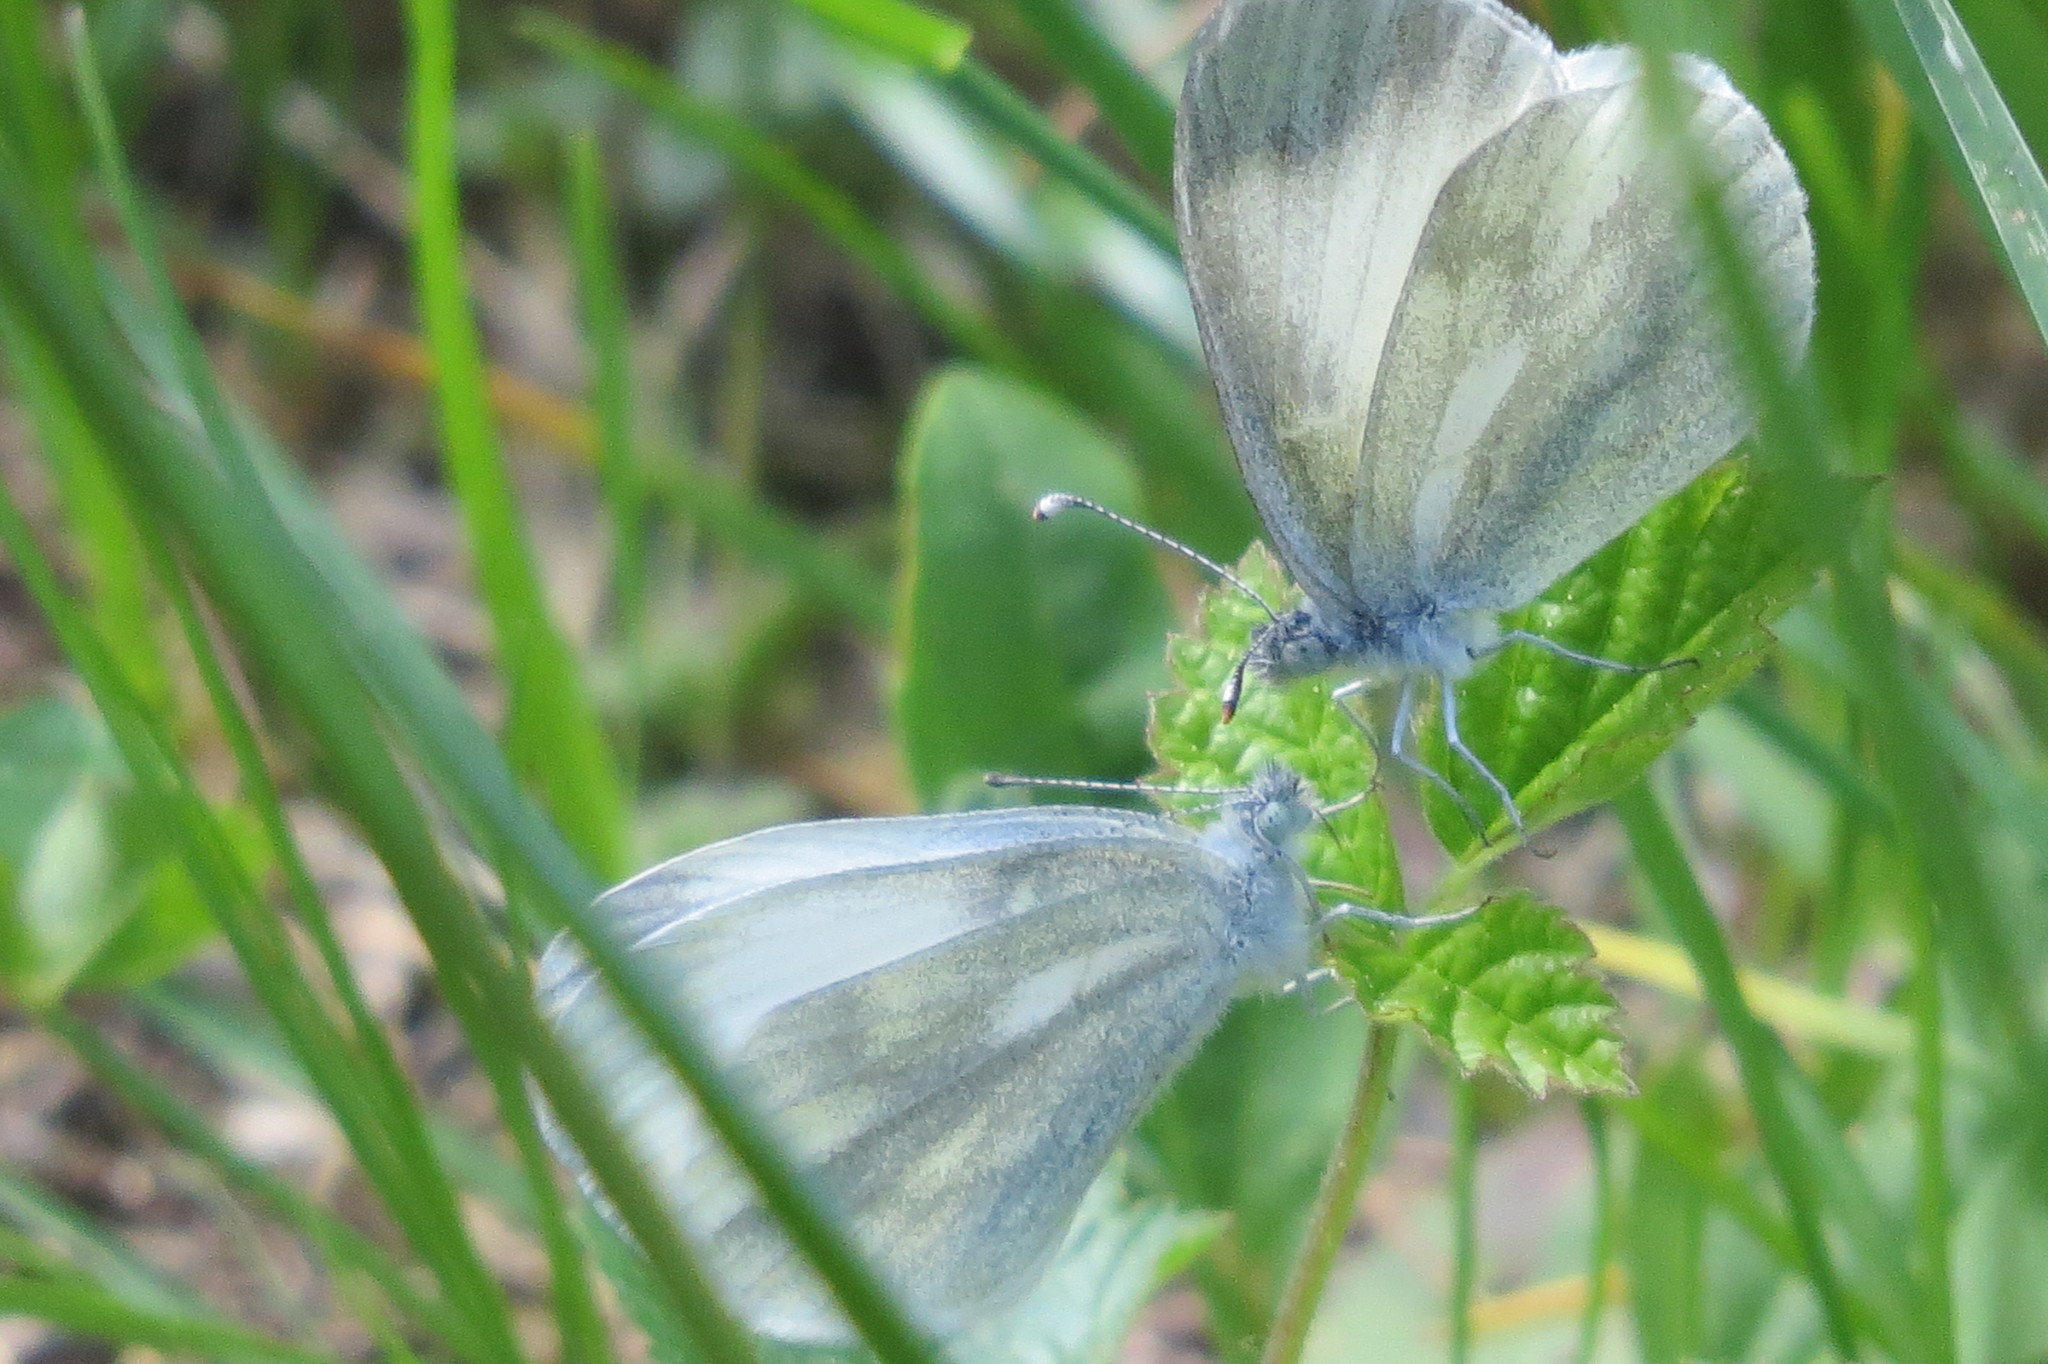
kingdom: Animalia
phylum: Arthropoda
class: Insecta
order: Lepidoptera
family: Pieridae
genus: Leptidea
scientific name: Leptidea
